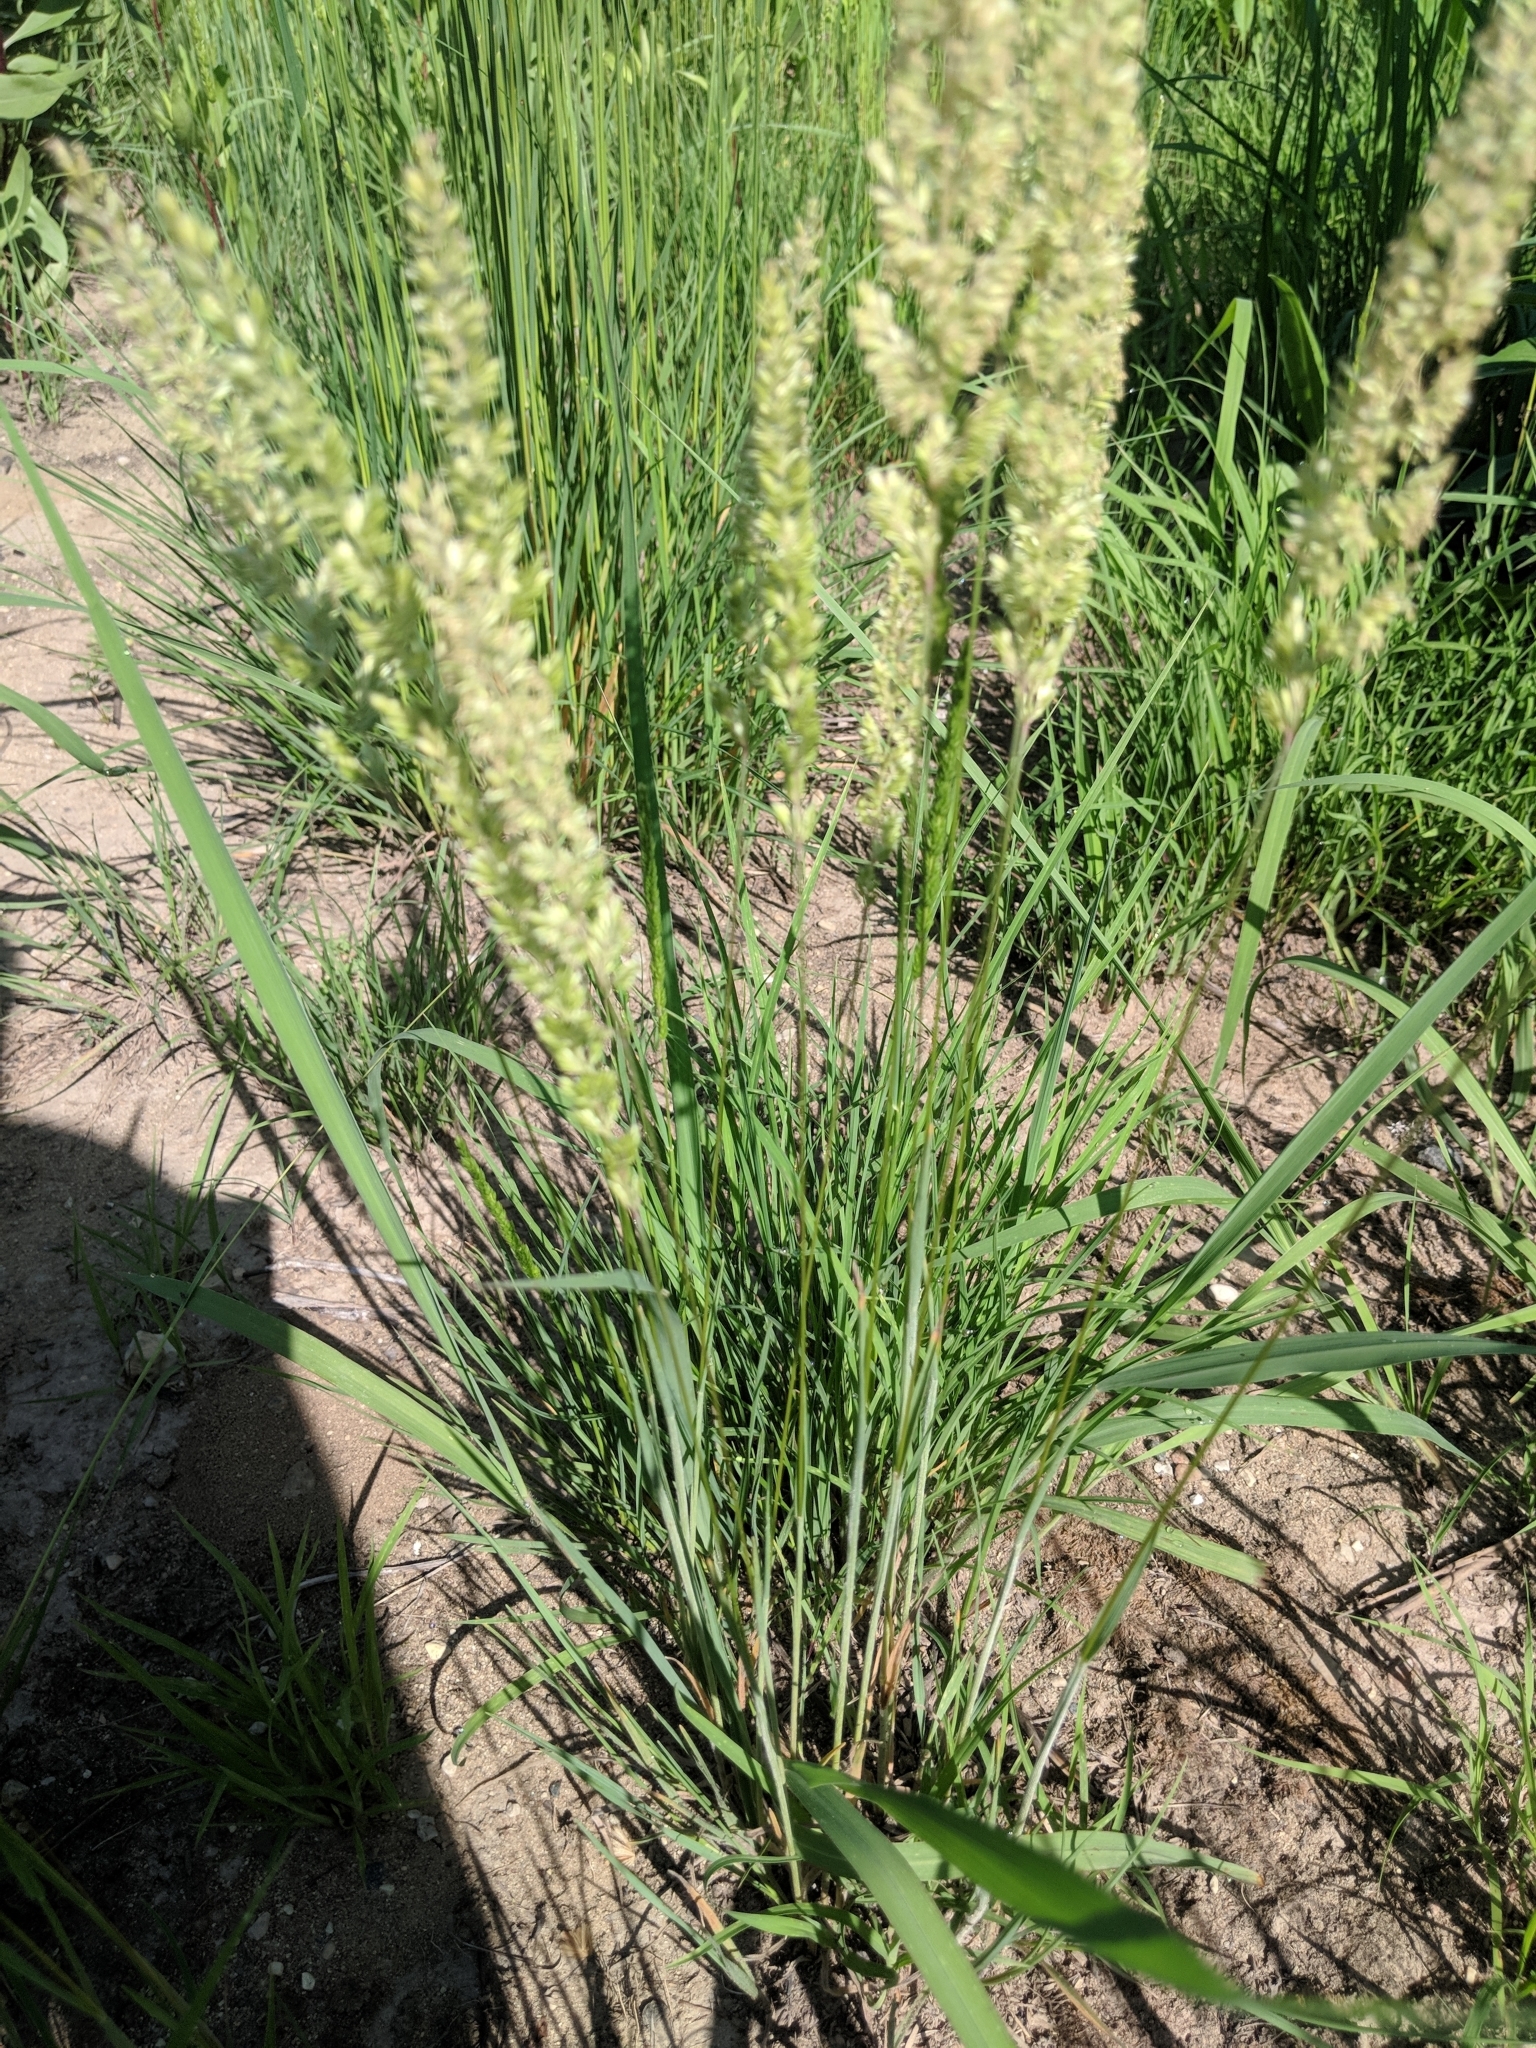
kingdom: Plantae
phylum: Tracheophyta
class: Liliopsida
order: Poales
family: Poaceae
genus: Koeleria
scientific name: Koeleria macrantha
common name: Crested hair-grass
